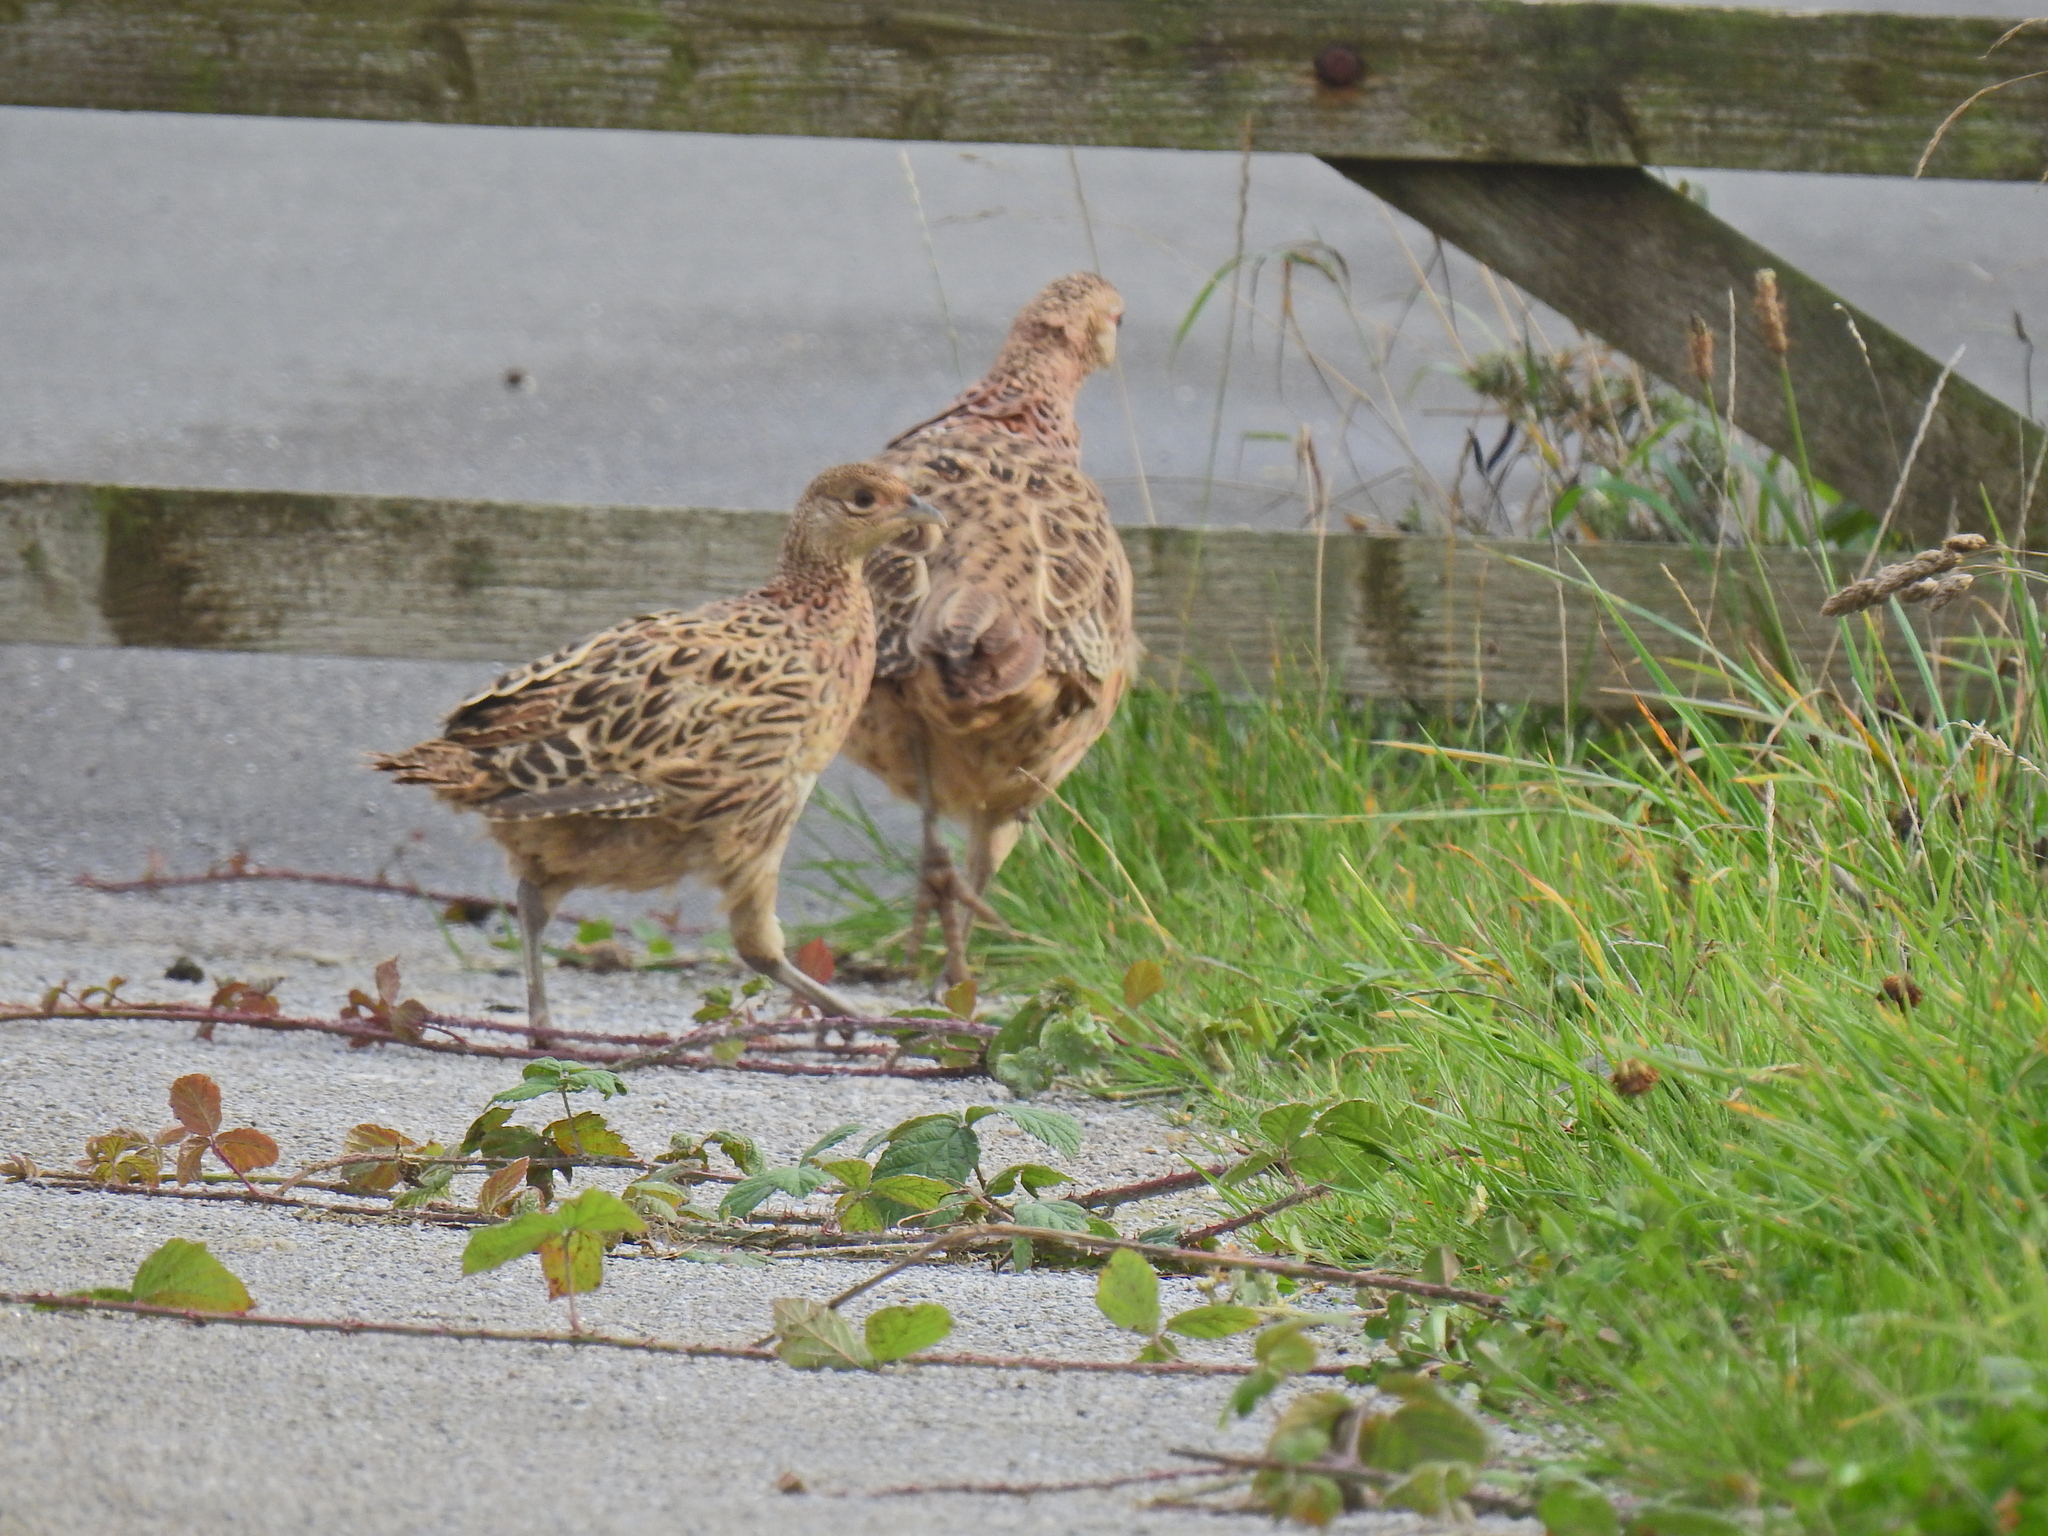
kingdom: Animalia
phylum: Chordata
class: Aves
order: Galliformes
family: Phasianidae
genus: Phasianus
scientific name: Phasianus colchicus
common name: Common pheasant
